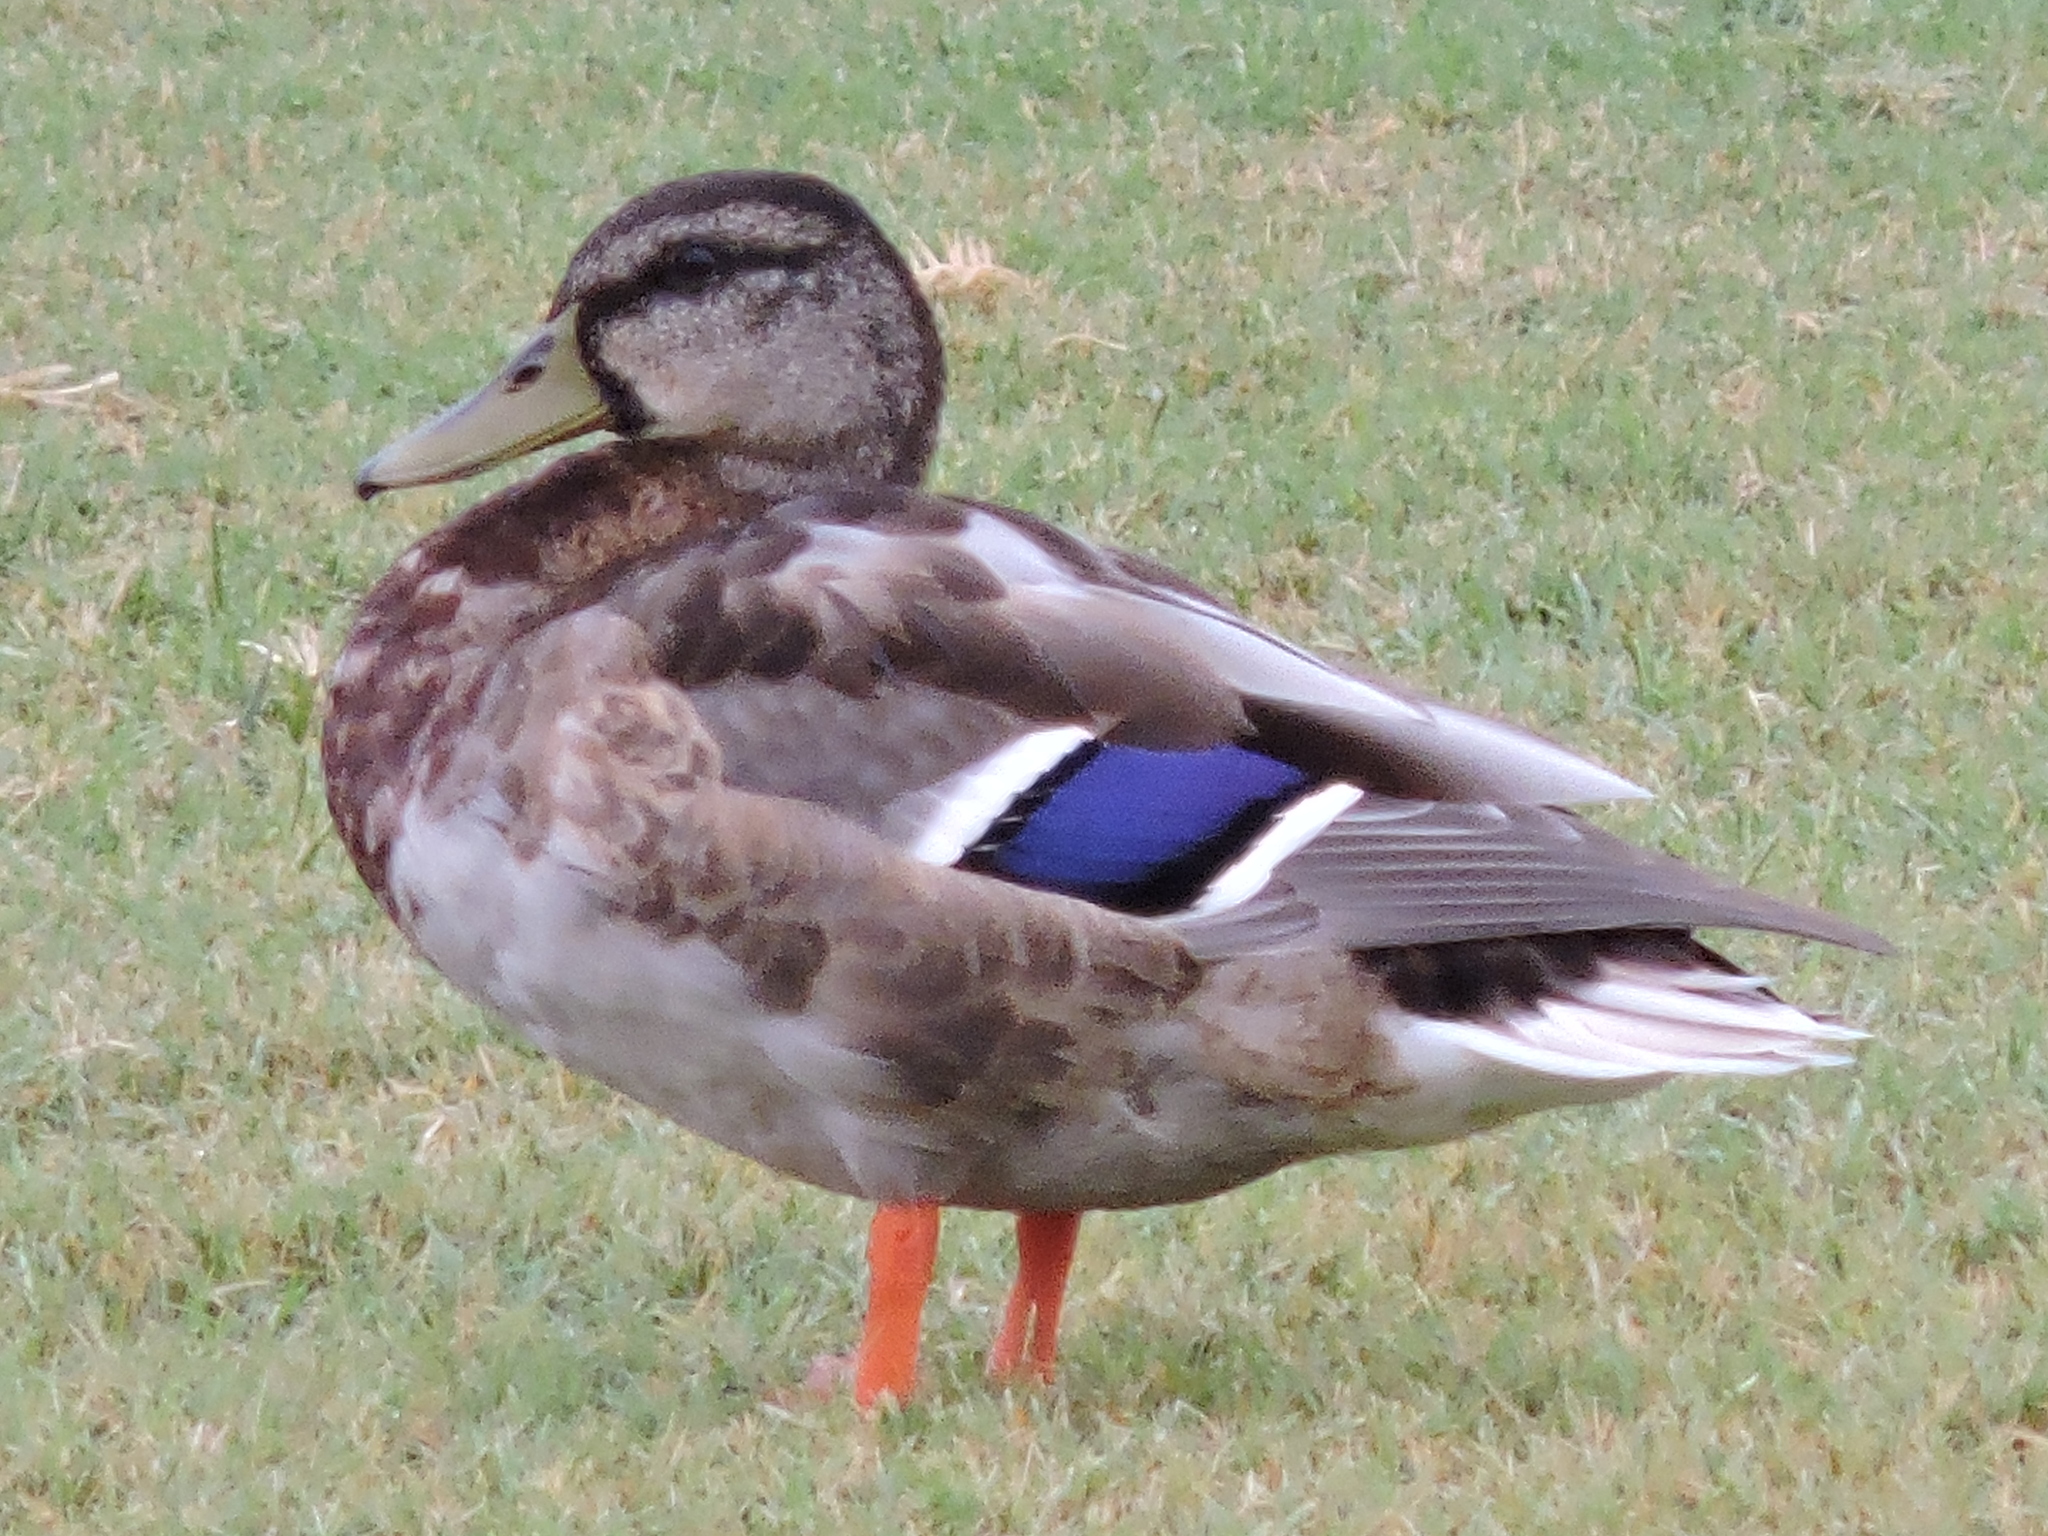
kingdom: Animalia
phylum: Chordata
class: Aves
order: Anseriformes
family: Anatidae
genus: Anas
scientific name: Anas platyrhynchos
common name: Mallard
